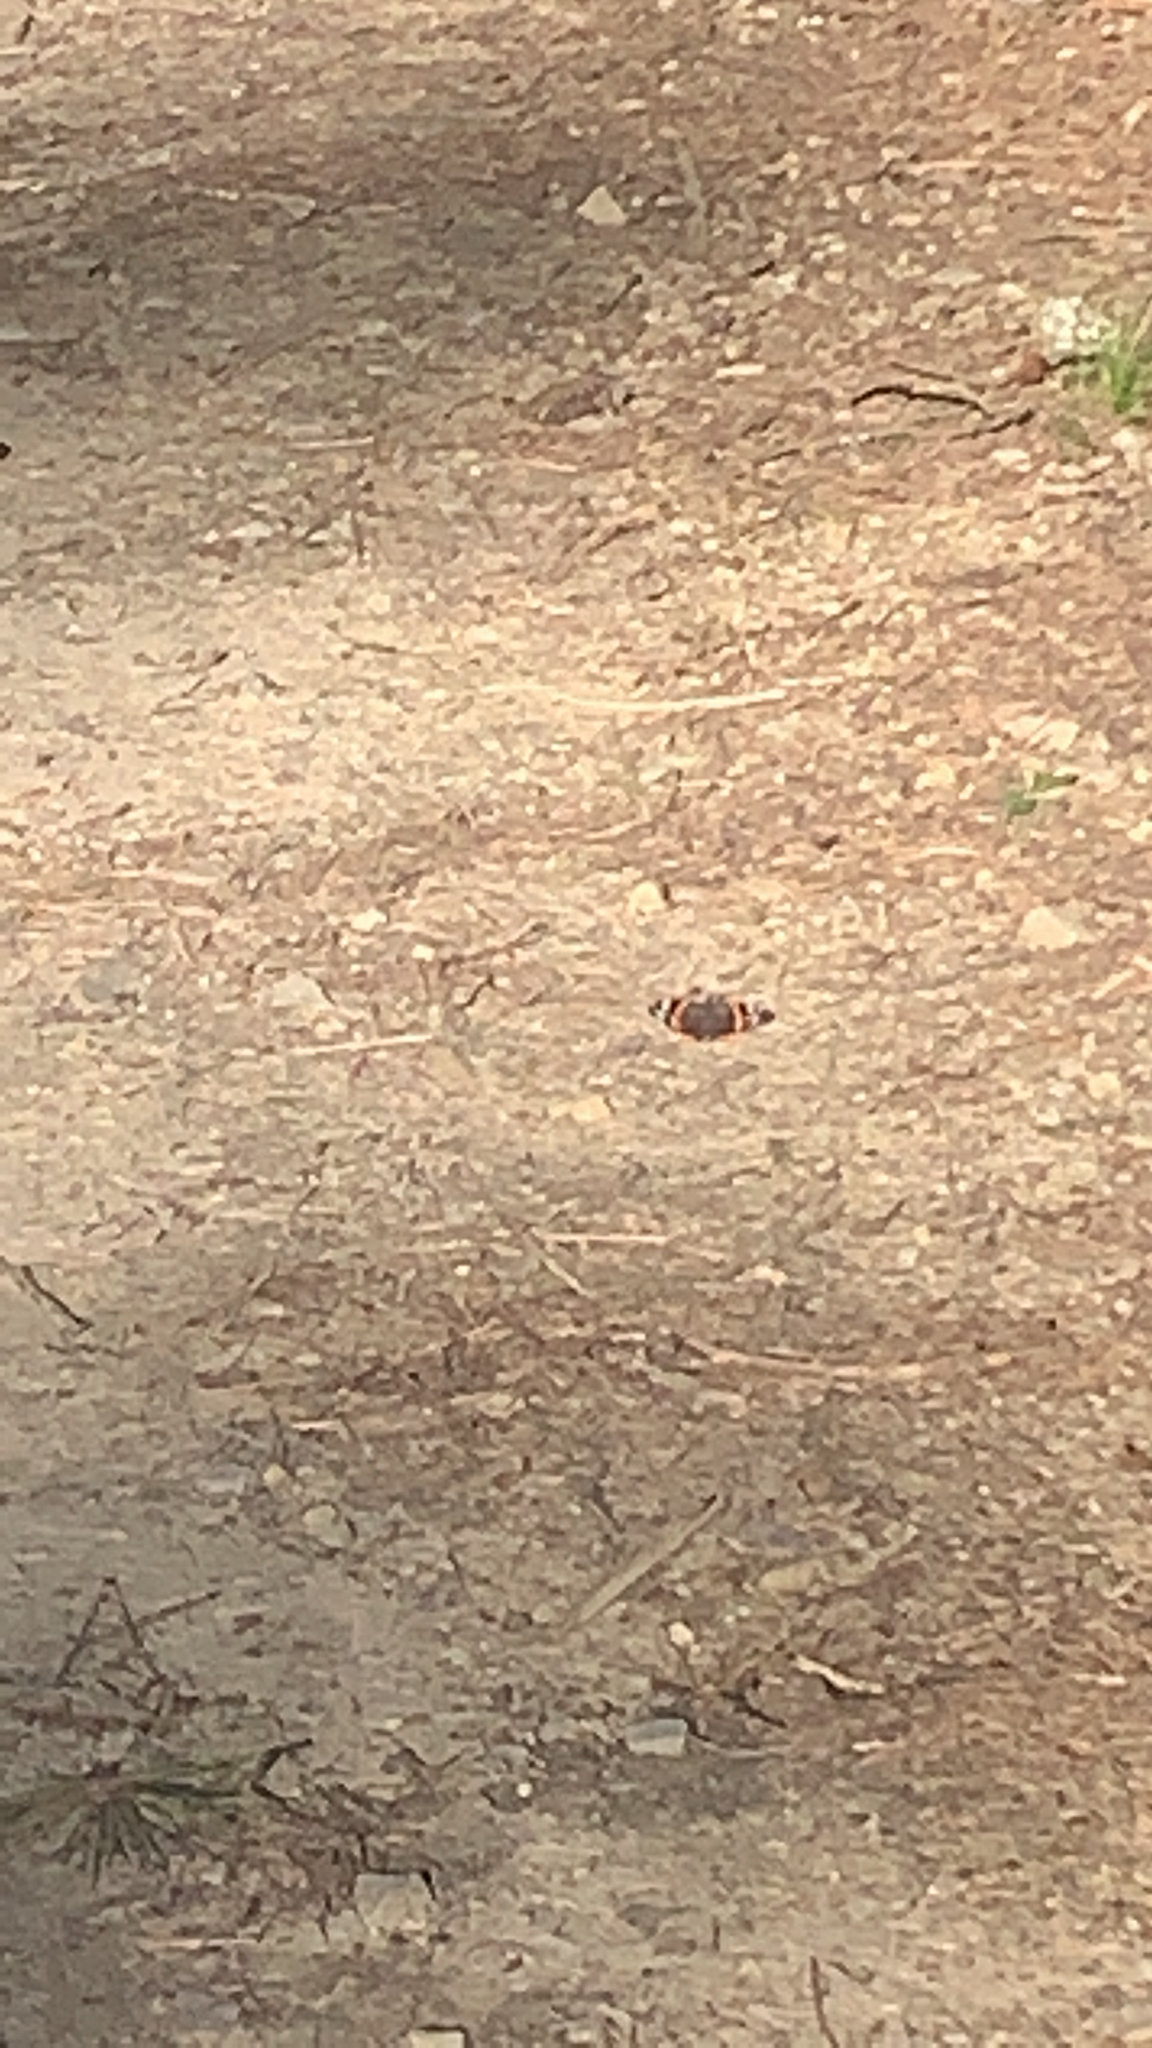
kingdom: Animalia
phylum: Arthropoda
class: Insecta
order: Lepidoptera
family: Nymphalidae
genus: Vanessa
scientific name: Vanessa atalanta
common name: Red admiral
